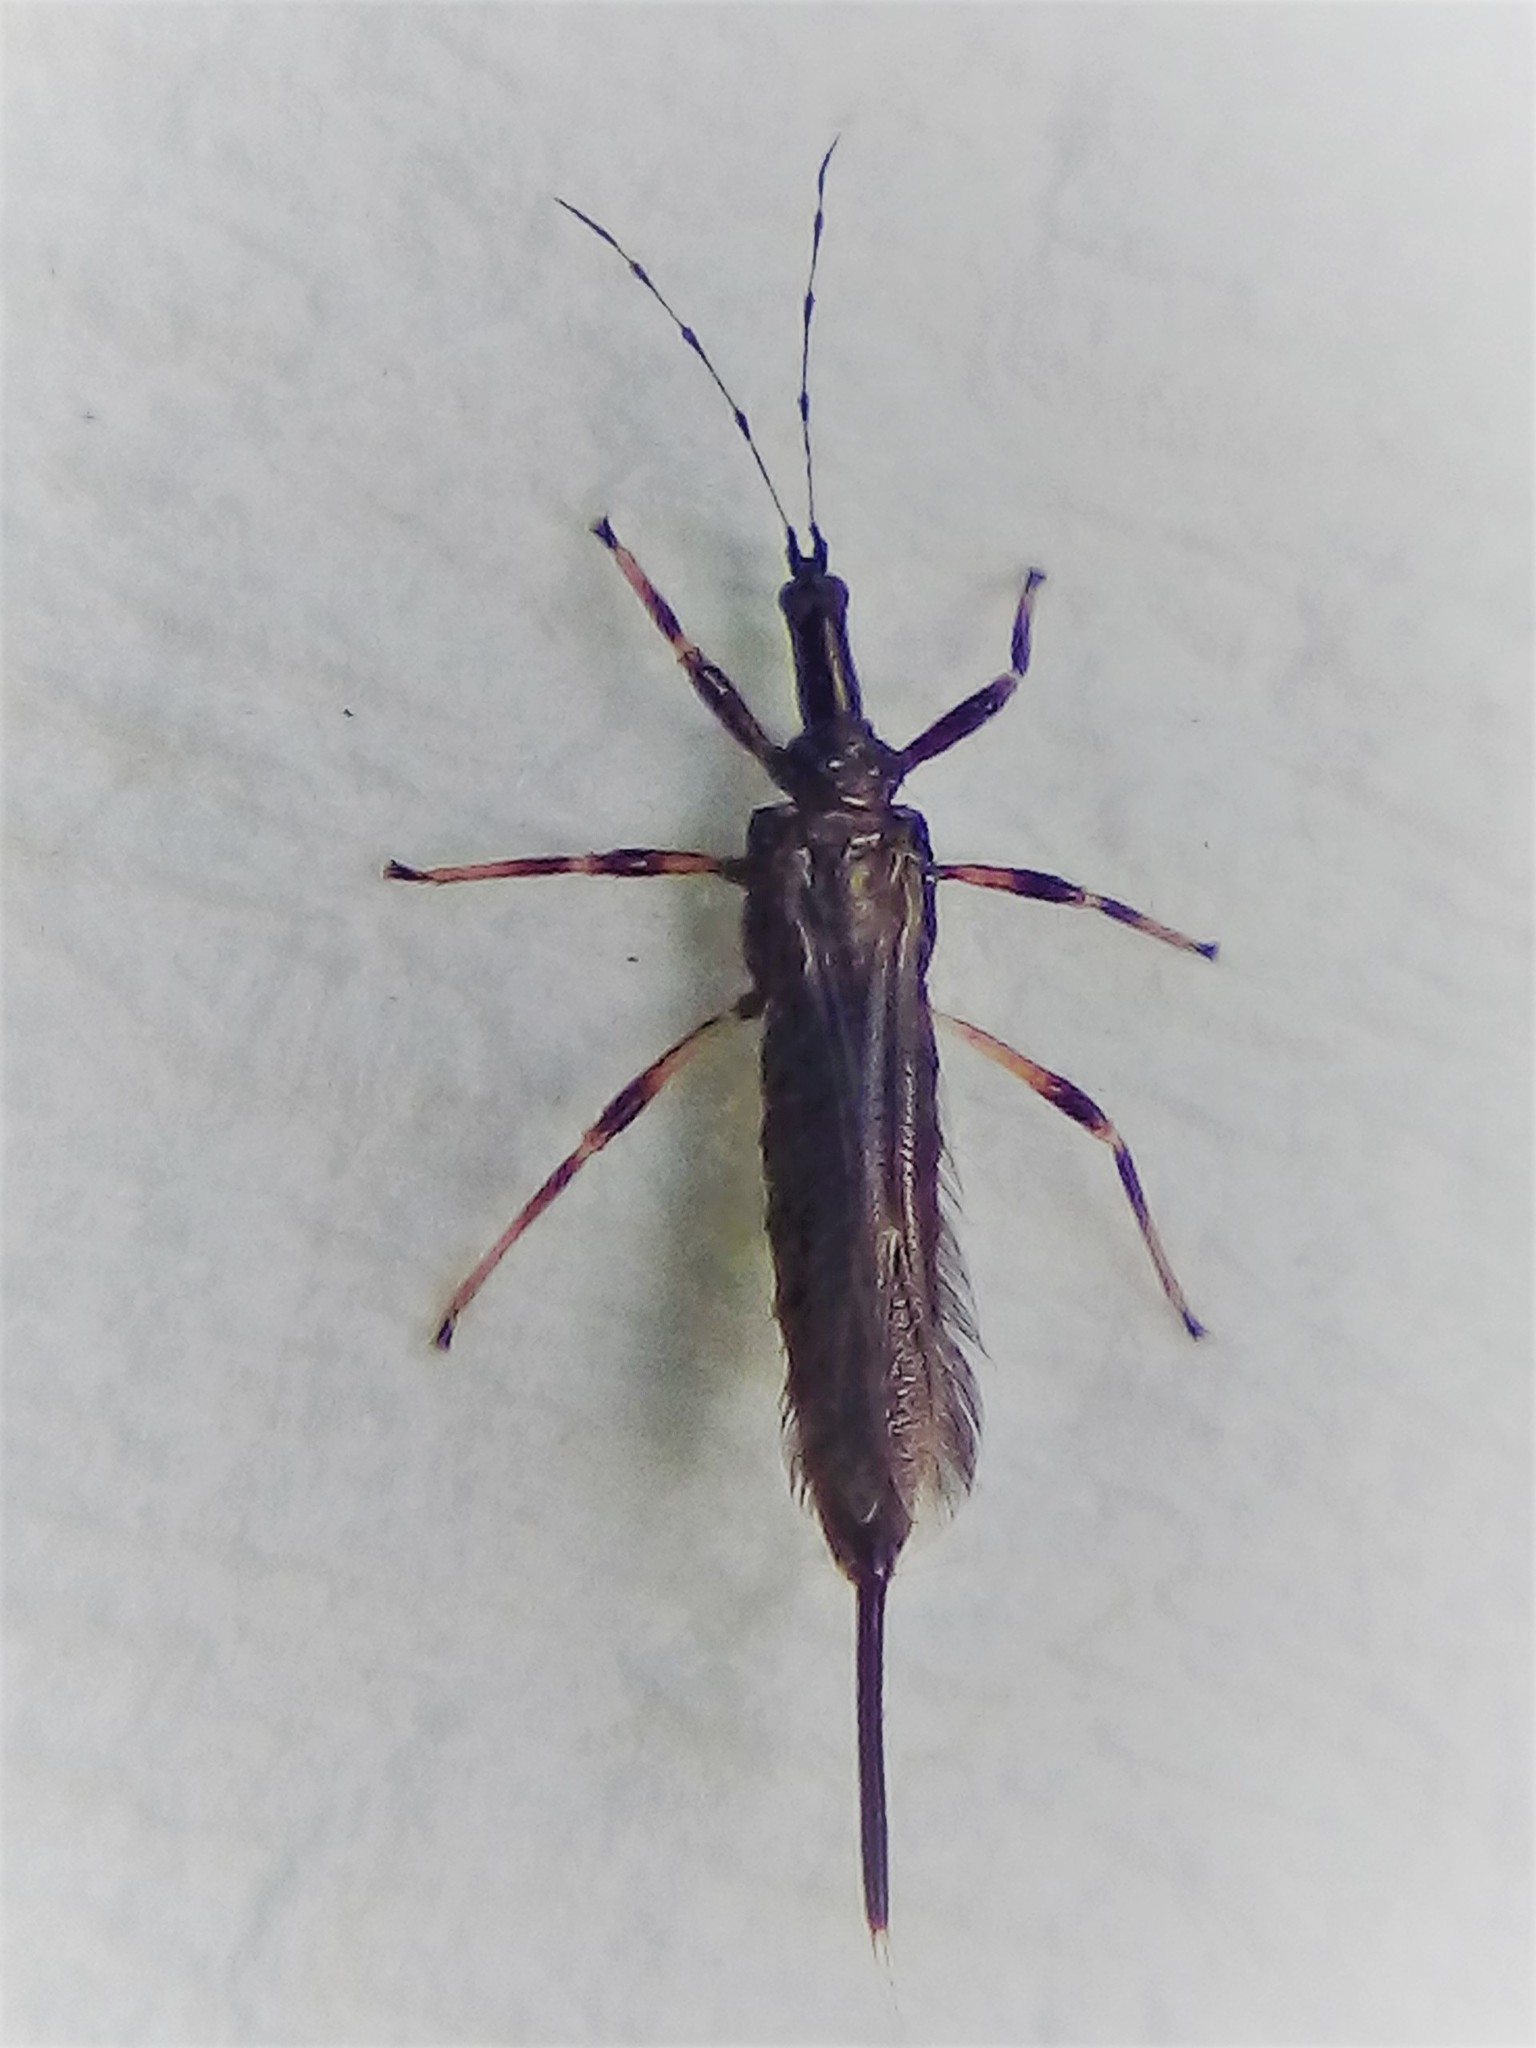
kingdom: Animalia
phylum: Arthropoda
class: Insecta
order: Thysanoptera
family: Phlaeothripidae
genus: Idolothrips
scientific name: Idolothrips spectrum
